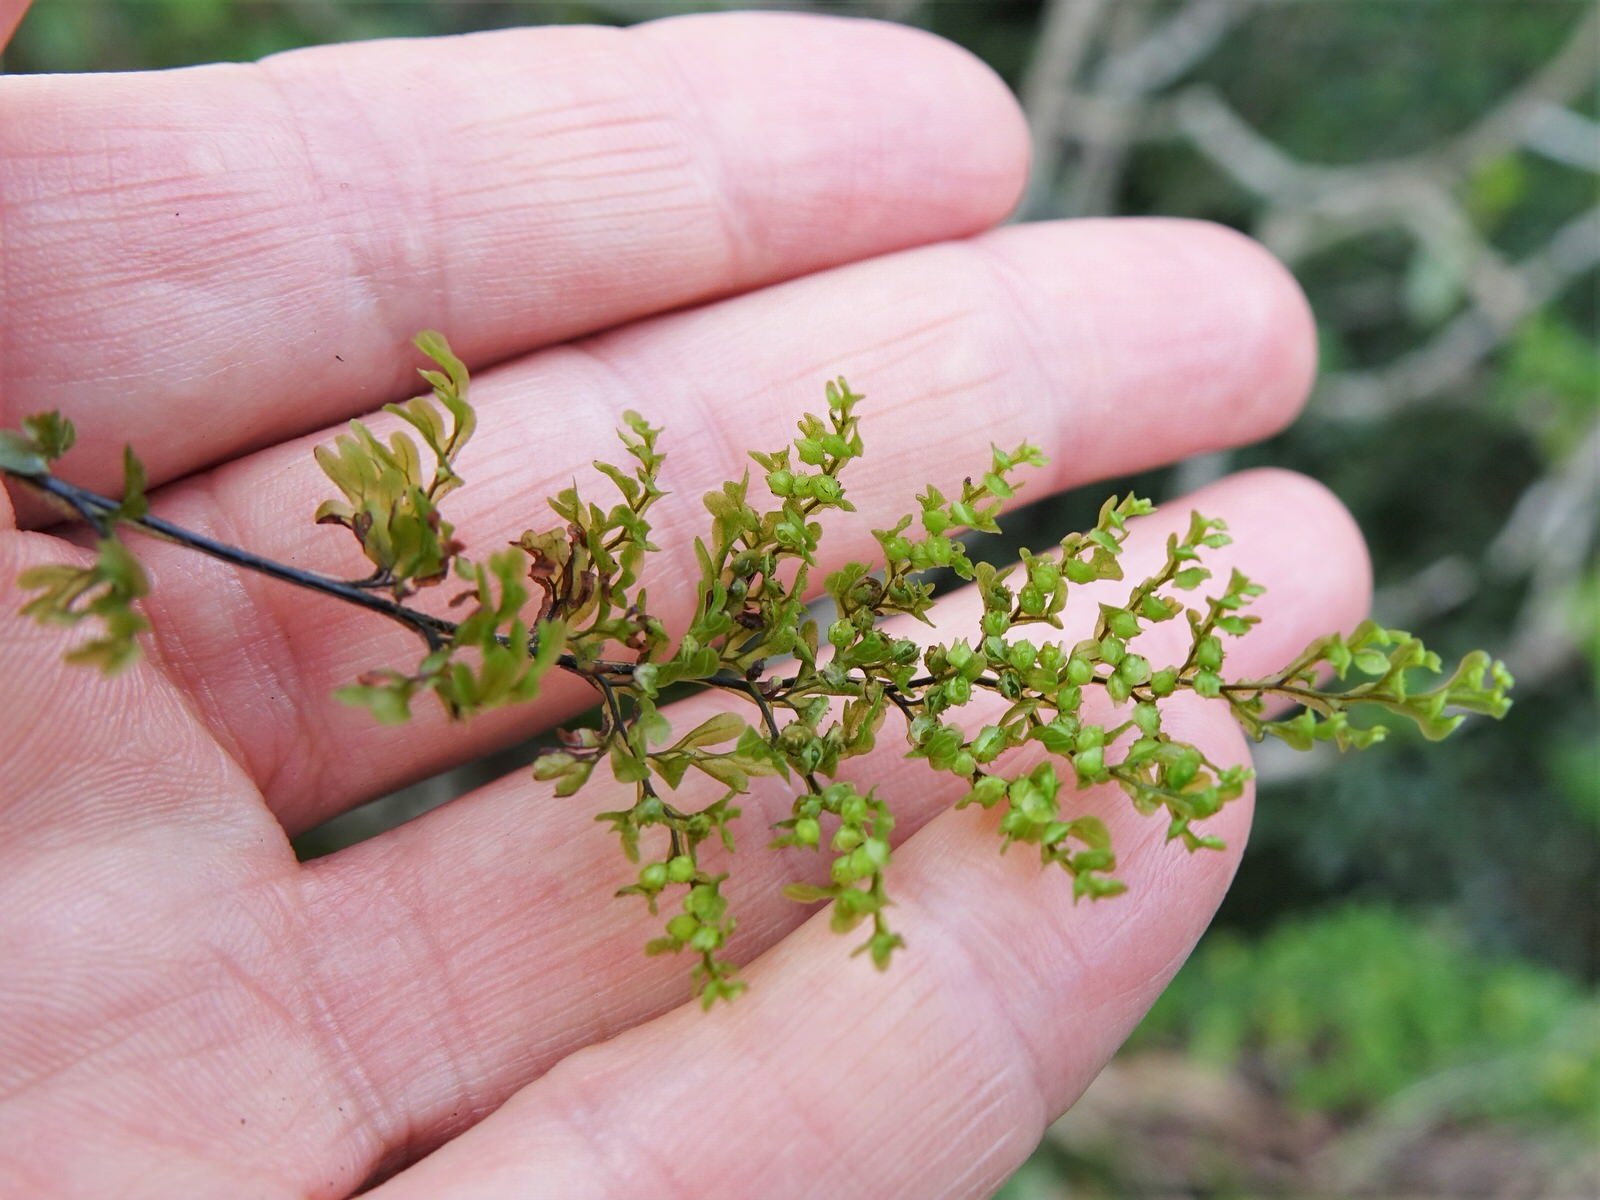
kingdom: Plantae
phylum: Tracheophyta
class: Polypodiopsida
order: Hymenophyllales
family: Hymenophyllaceae
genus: Hymenophyllum
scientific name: Hymenophyllum sanguinolentum
